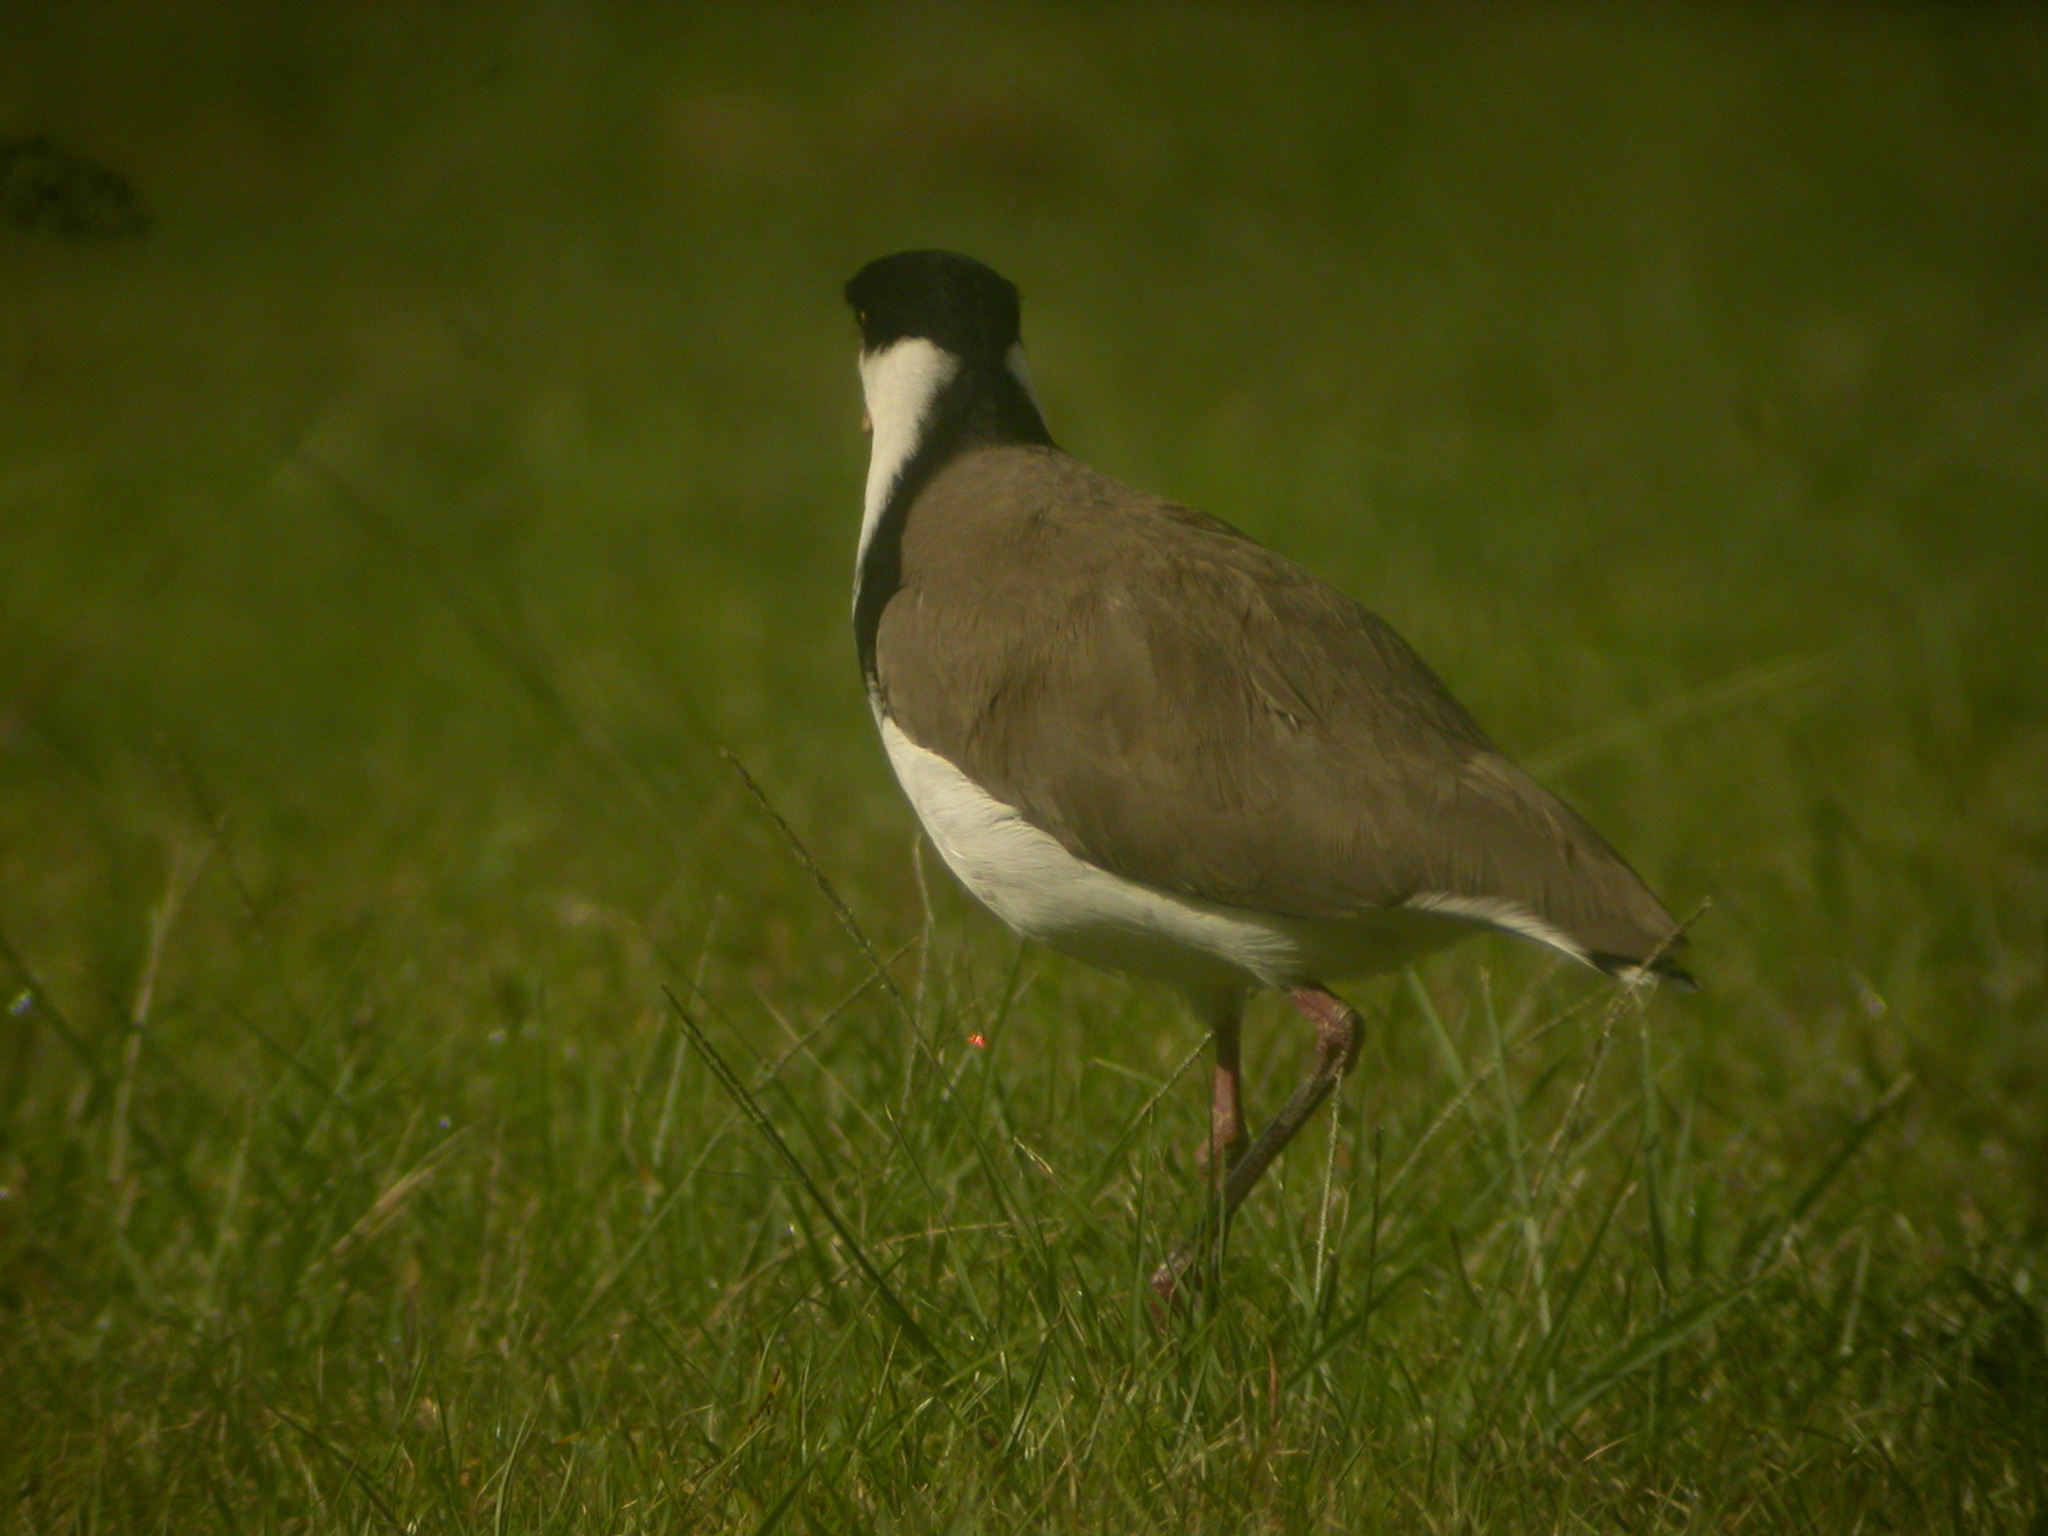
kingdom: Animalia
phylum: Chordata
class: Aves
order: Charadriiformes
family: Charadriidae
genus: Vanellus
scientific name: Vanellus miles
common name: Masked lapwing
